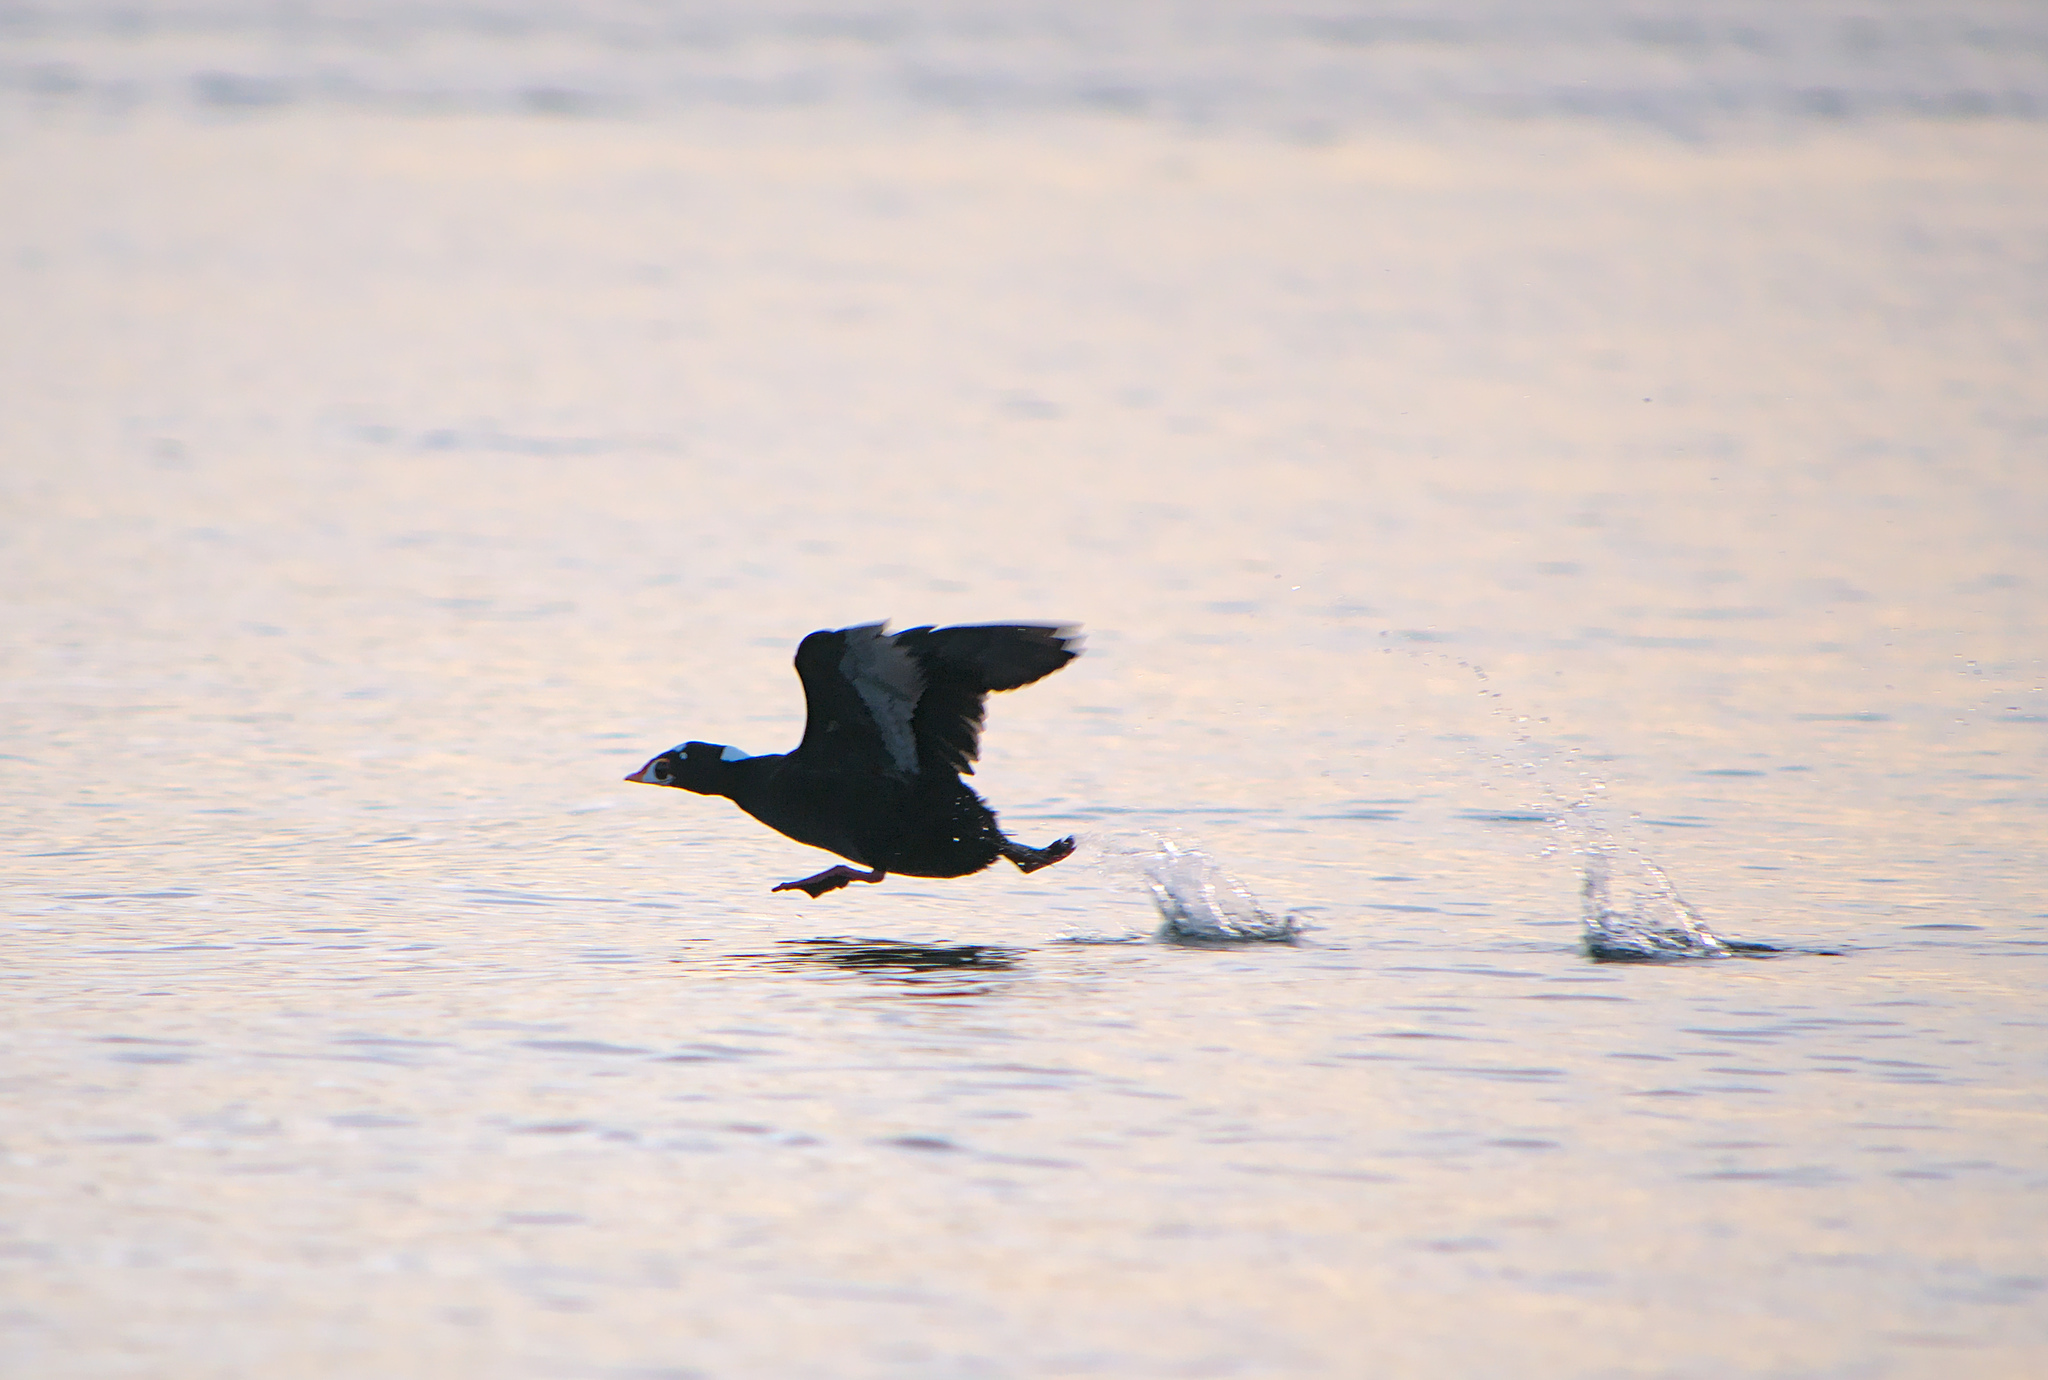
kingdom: Animalia
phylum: Chordata
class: Aves
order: Anseriformes
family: Anatidae
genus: Melanitta
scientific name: Melanitta perspicillata
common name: Surf scoter
